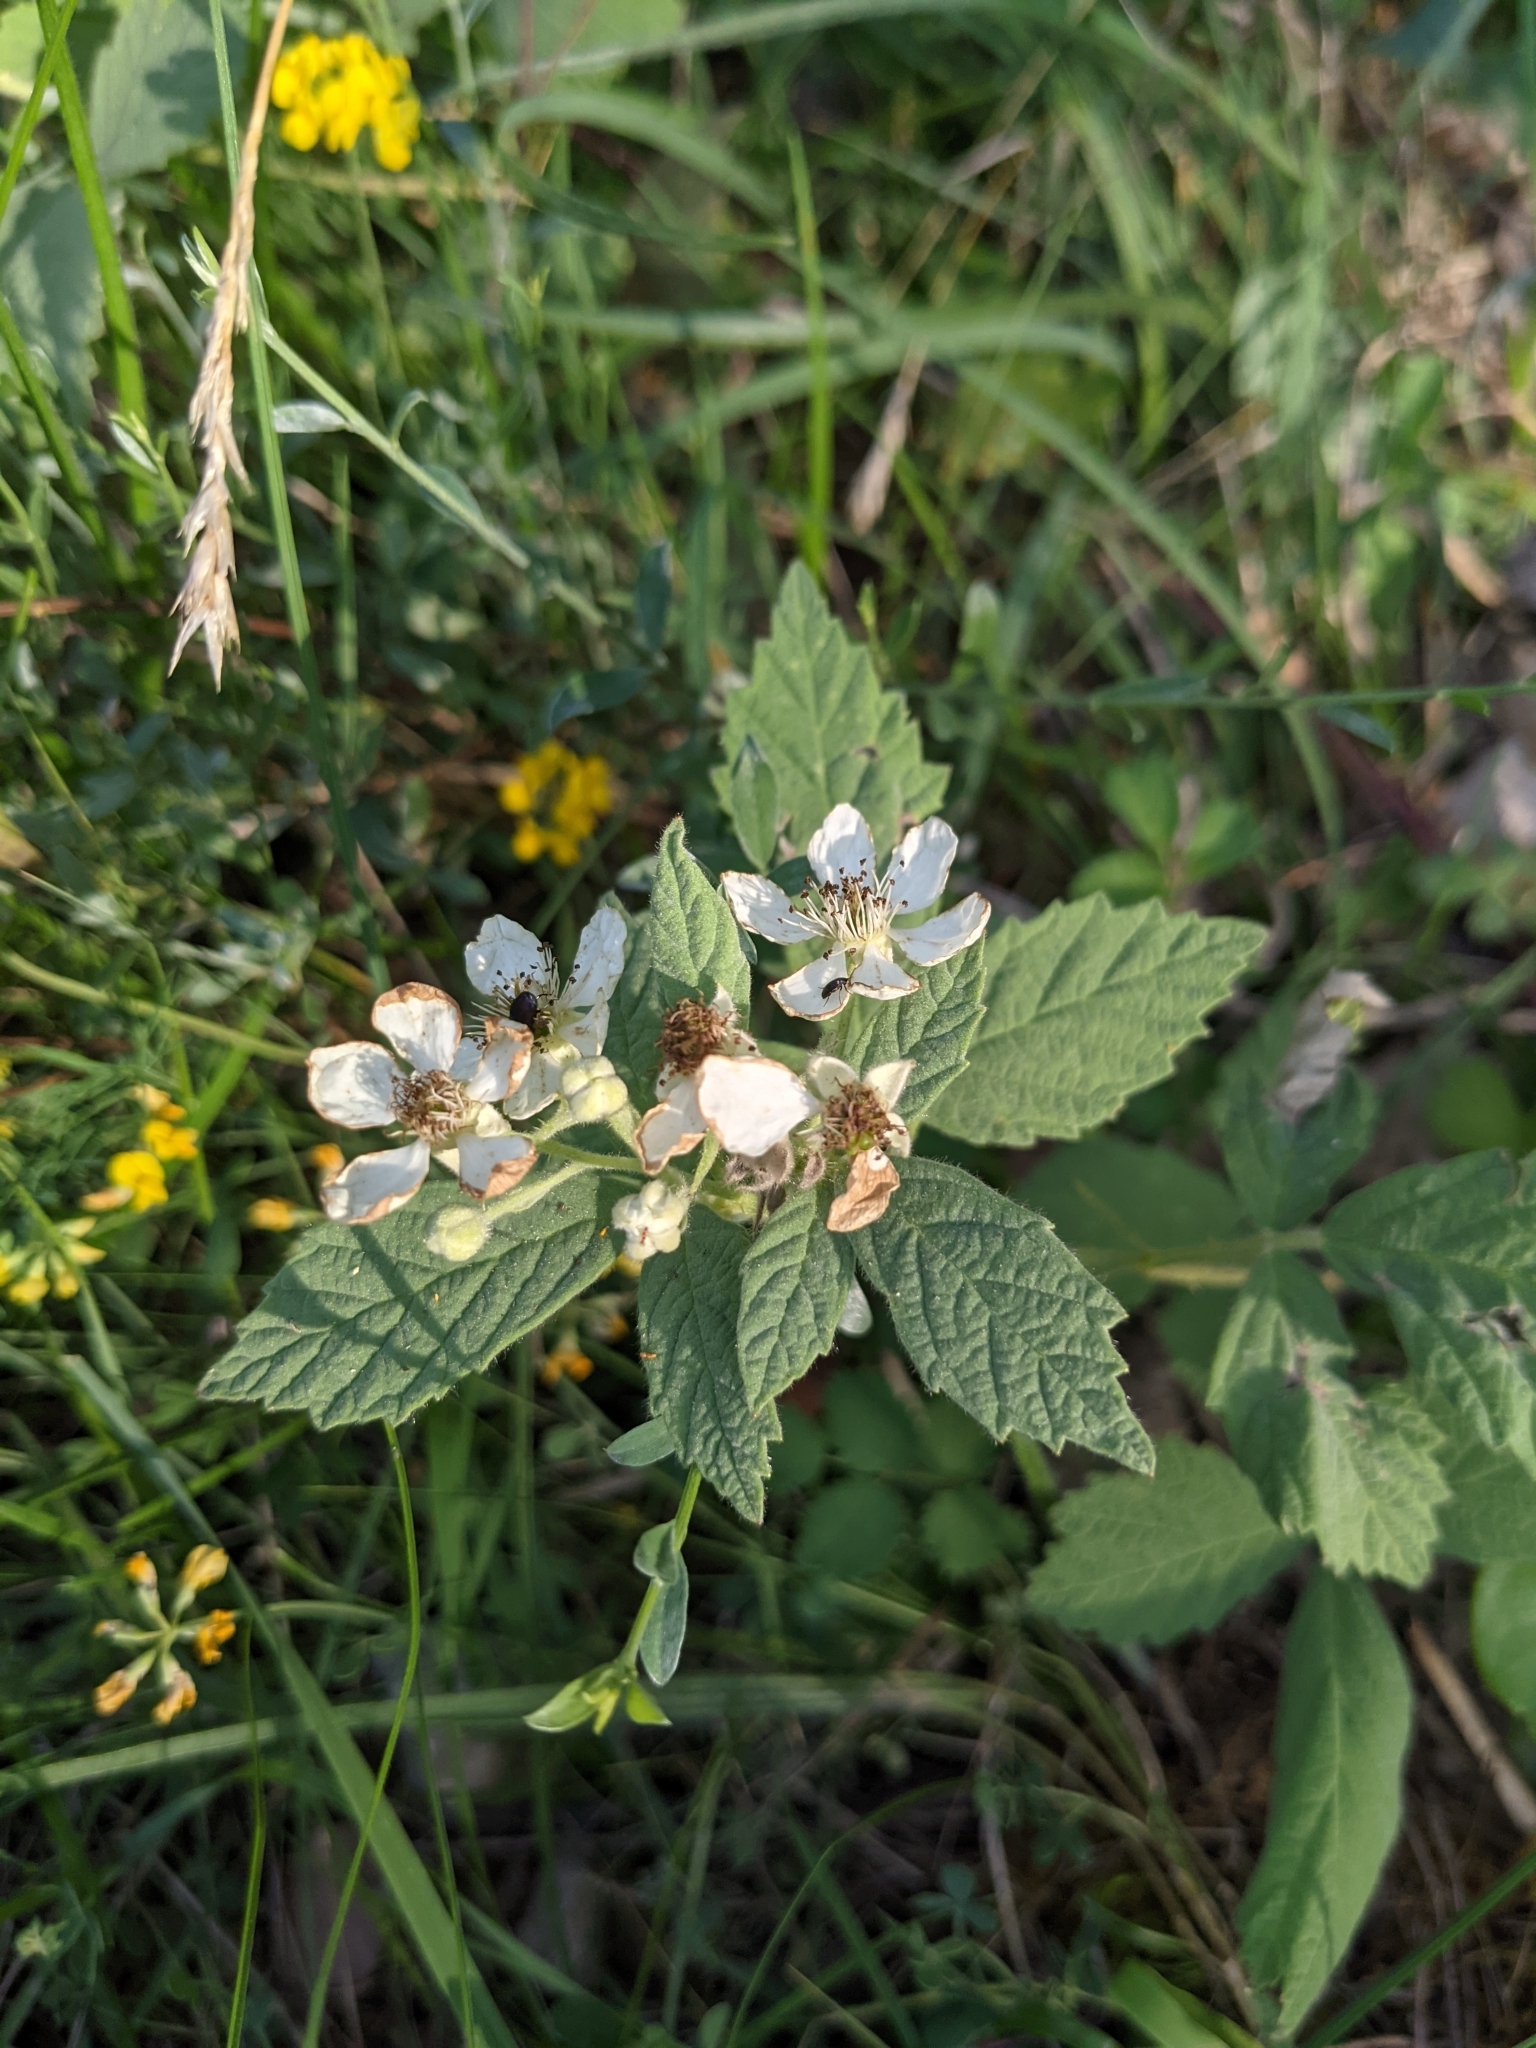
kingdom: Plantae
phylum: Tracheophyta
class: Magnoliopsida
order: Rosales
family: Rosaceae
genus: Rubus
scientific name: Rubus canescens
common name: Wooly blackberry
